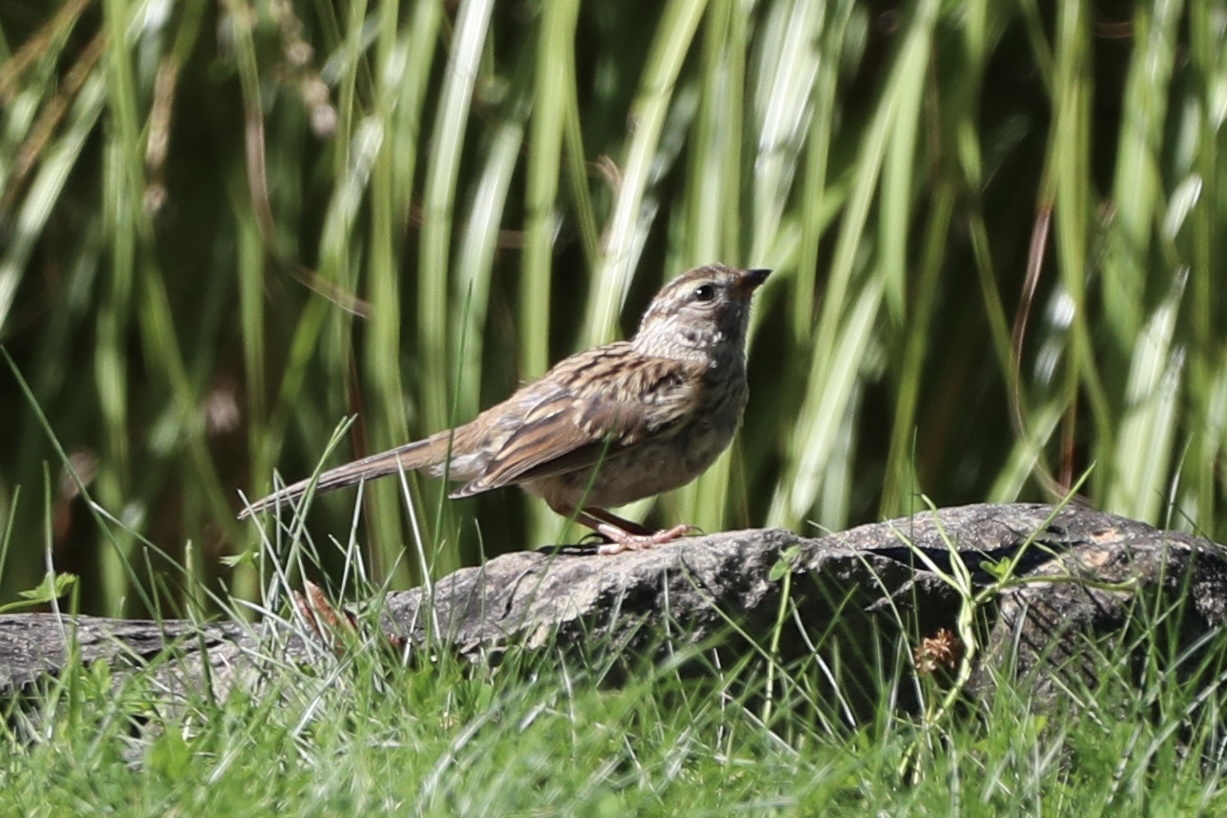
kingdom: Animalia
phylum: Chordata
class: Aves
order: Passeriformes
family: Passerellidae
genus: Zonotrichia
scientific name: Zonotrichia leucophrys
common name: White-crowned sparrow
